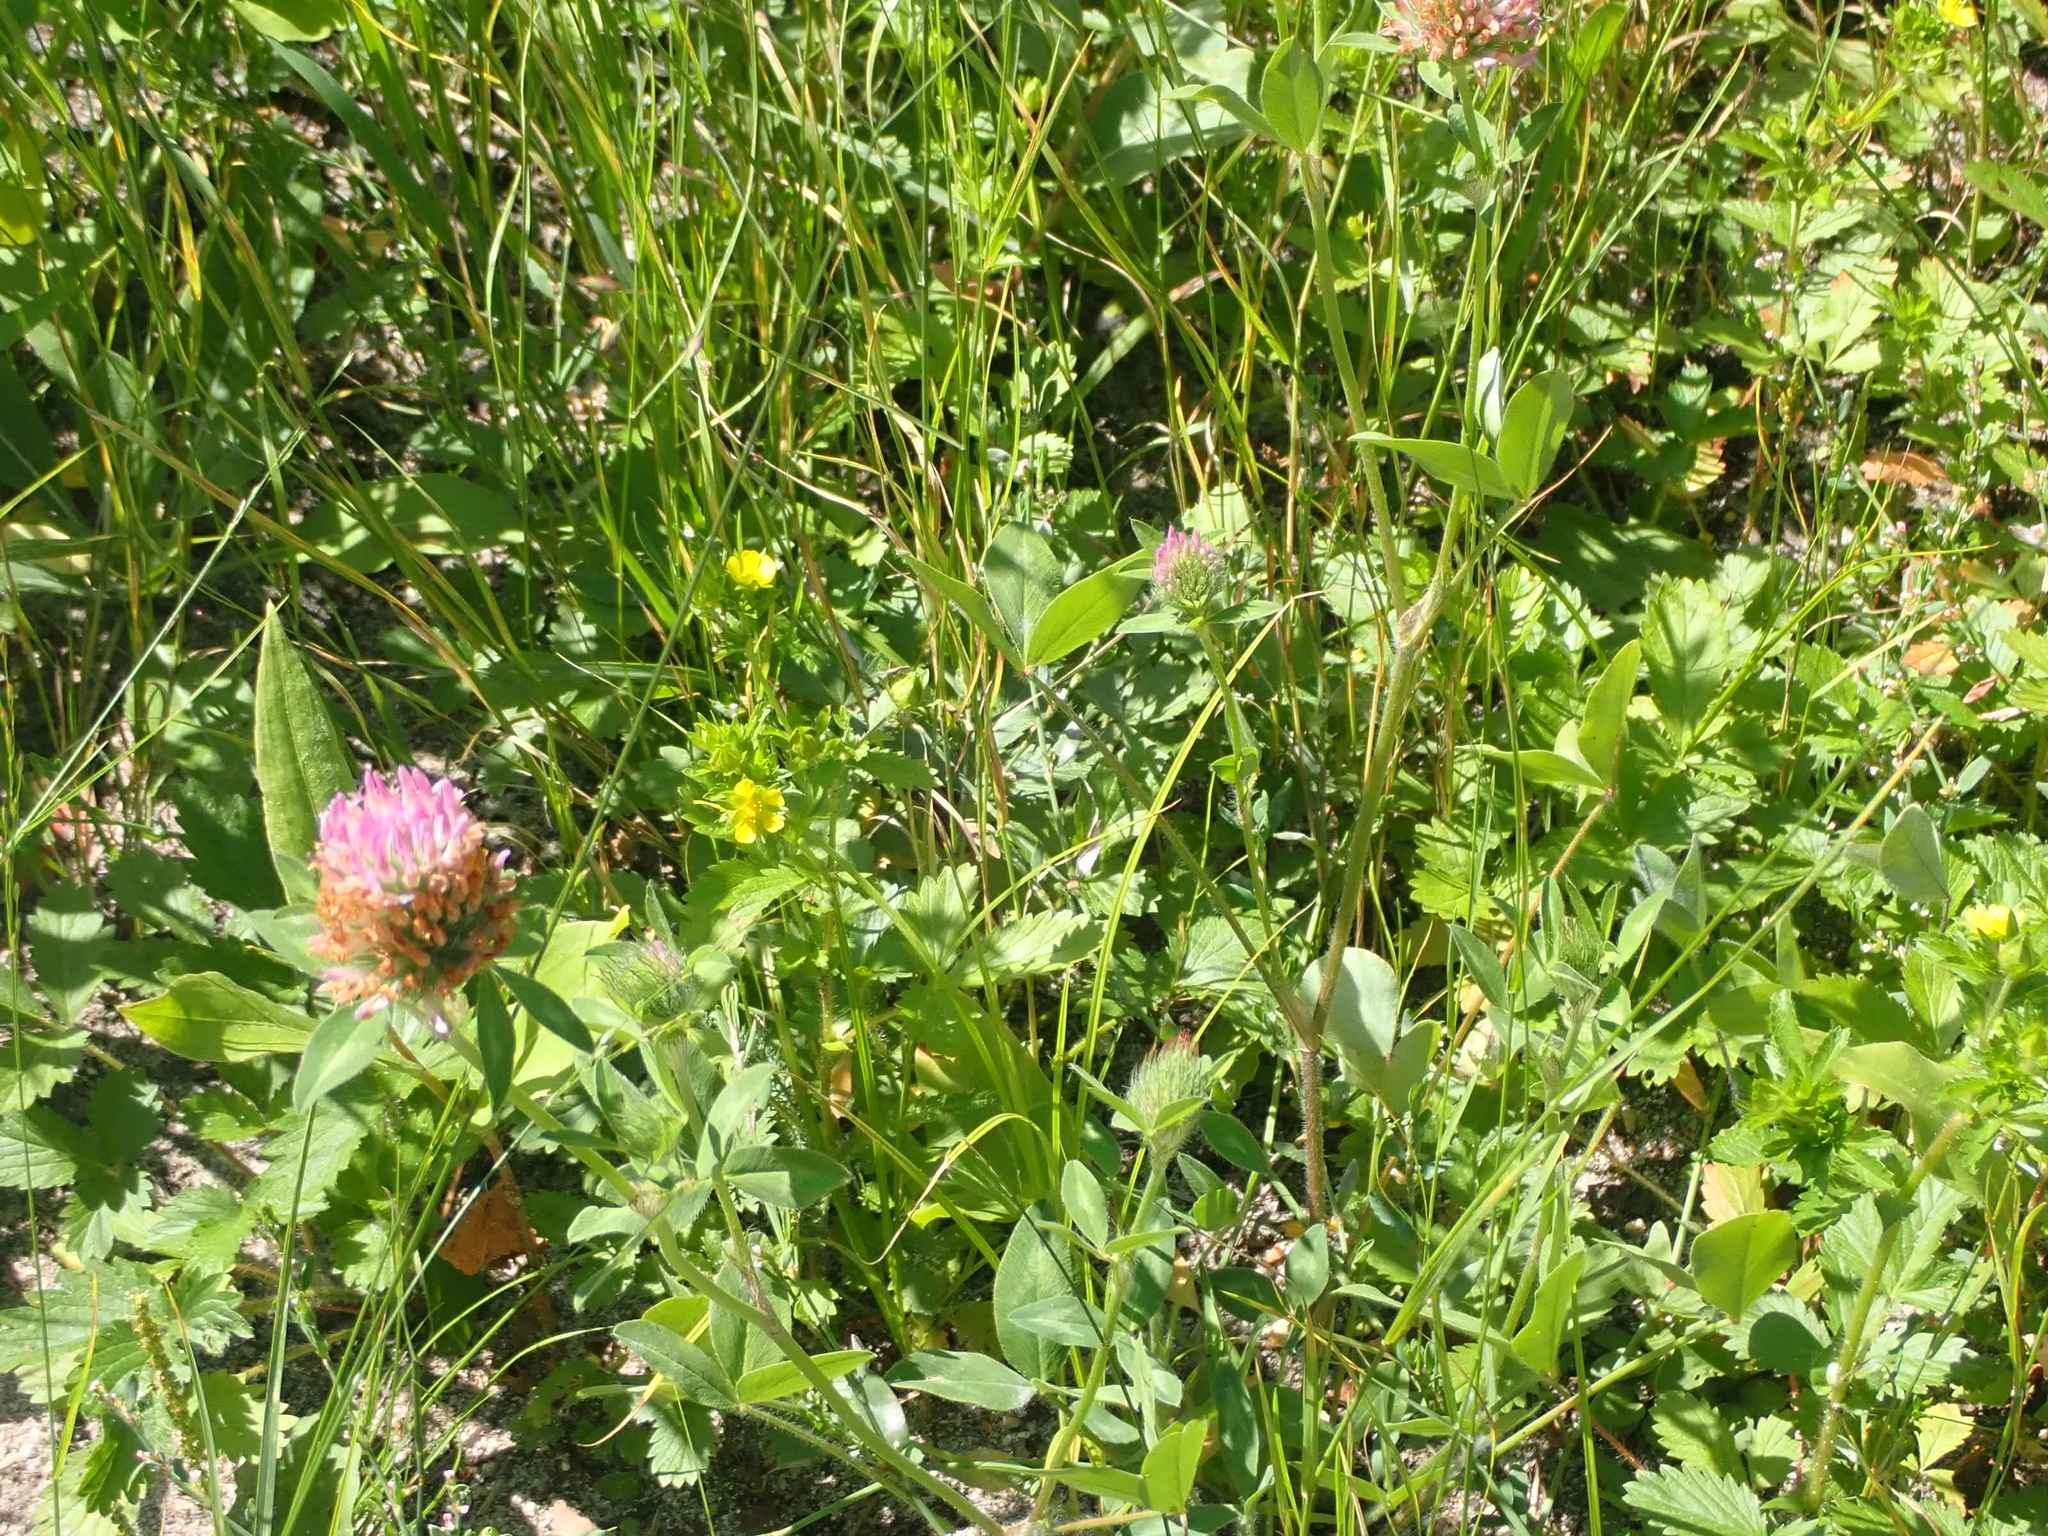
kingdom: Plantae
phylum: Tracheophyta
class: Magnoliopsida
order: Fabales
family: Fabaceae
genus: Trifolium
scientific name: Trifolium pratense
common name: Red clover
